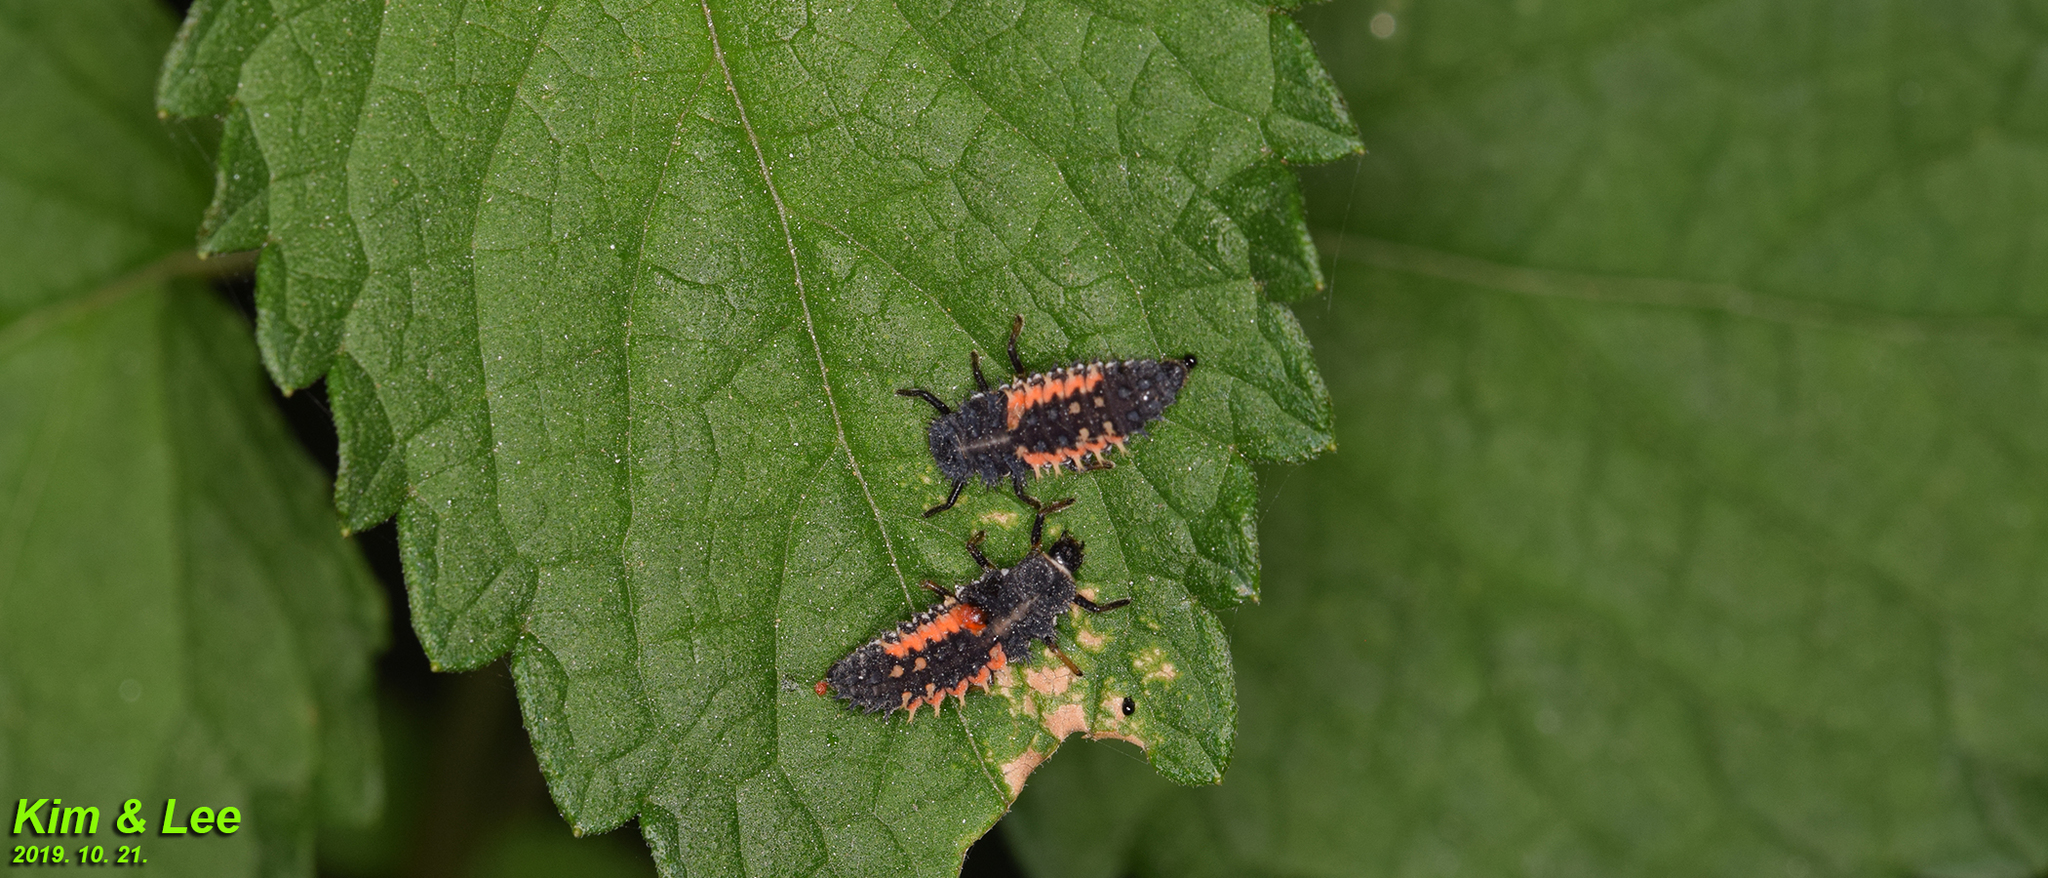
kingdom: Animalia
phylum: Arthropoda
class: Insecta
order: Coleoptera
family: Coccinellidae
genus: Harmonia
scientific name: Harmonia axyridis
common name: Harlequin ladybird
